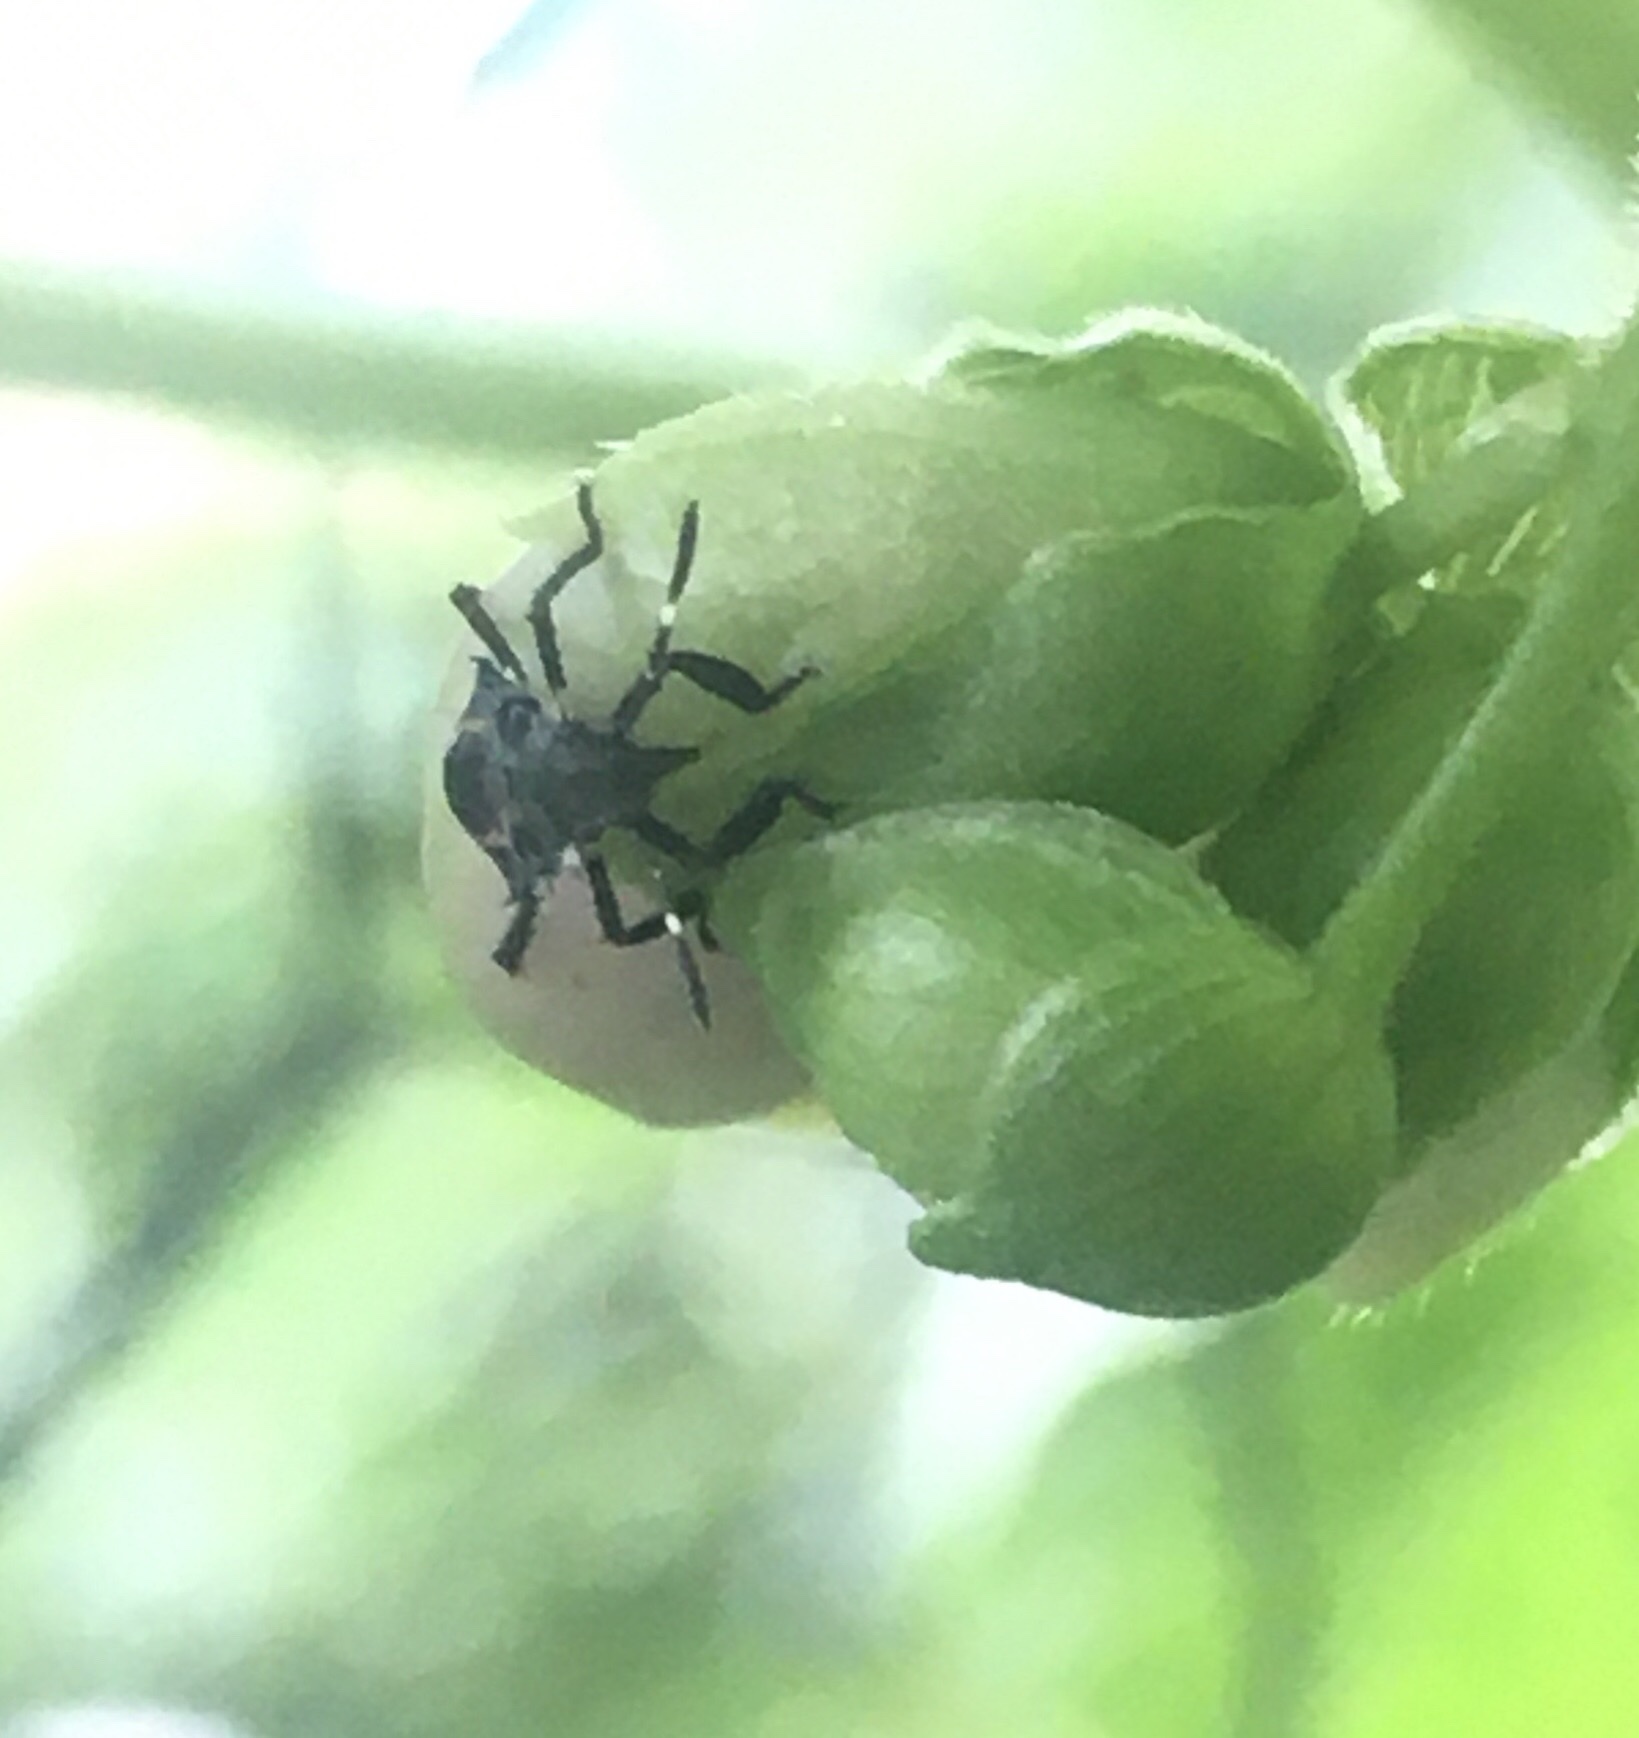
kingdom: Animalia
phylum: Arthropoda
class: Insecta
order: Hemiptera
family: Pentatomidae
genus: Halyomorpha
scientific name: Halyomorpha halys
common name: Brown marmorated stink bug
